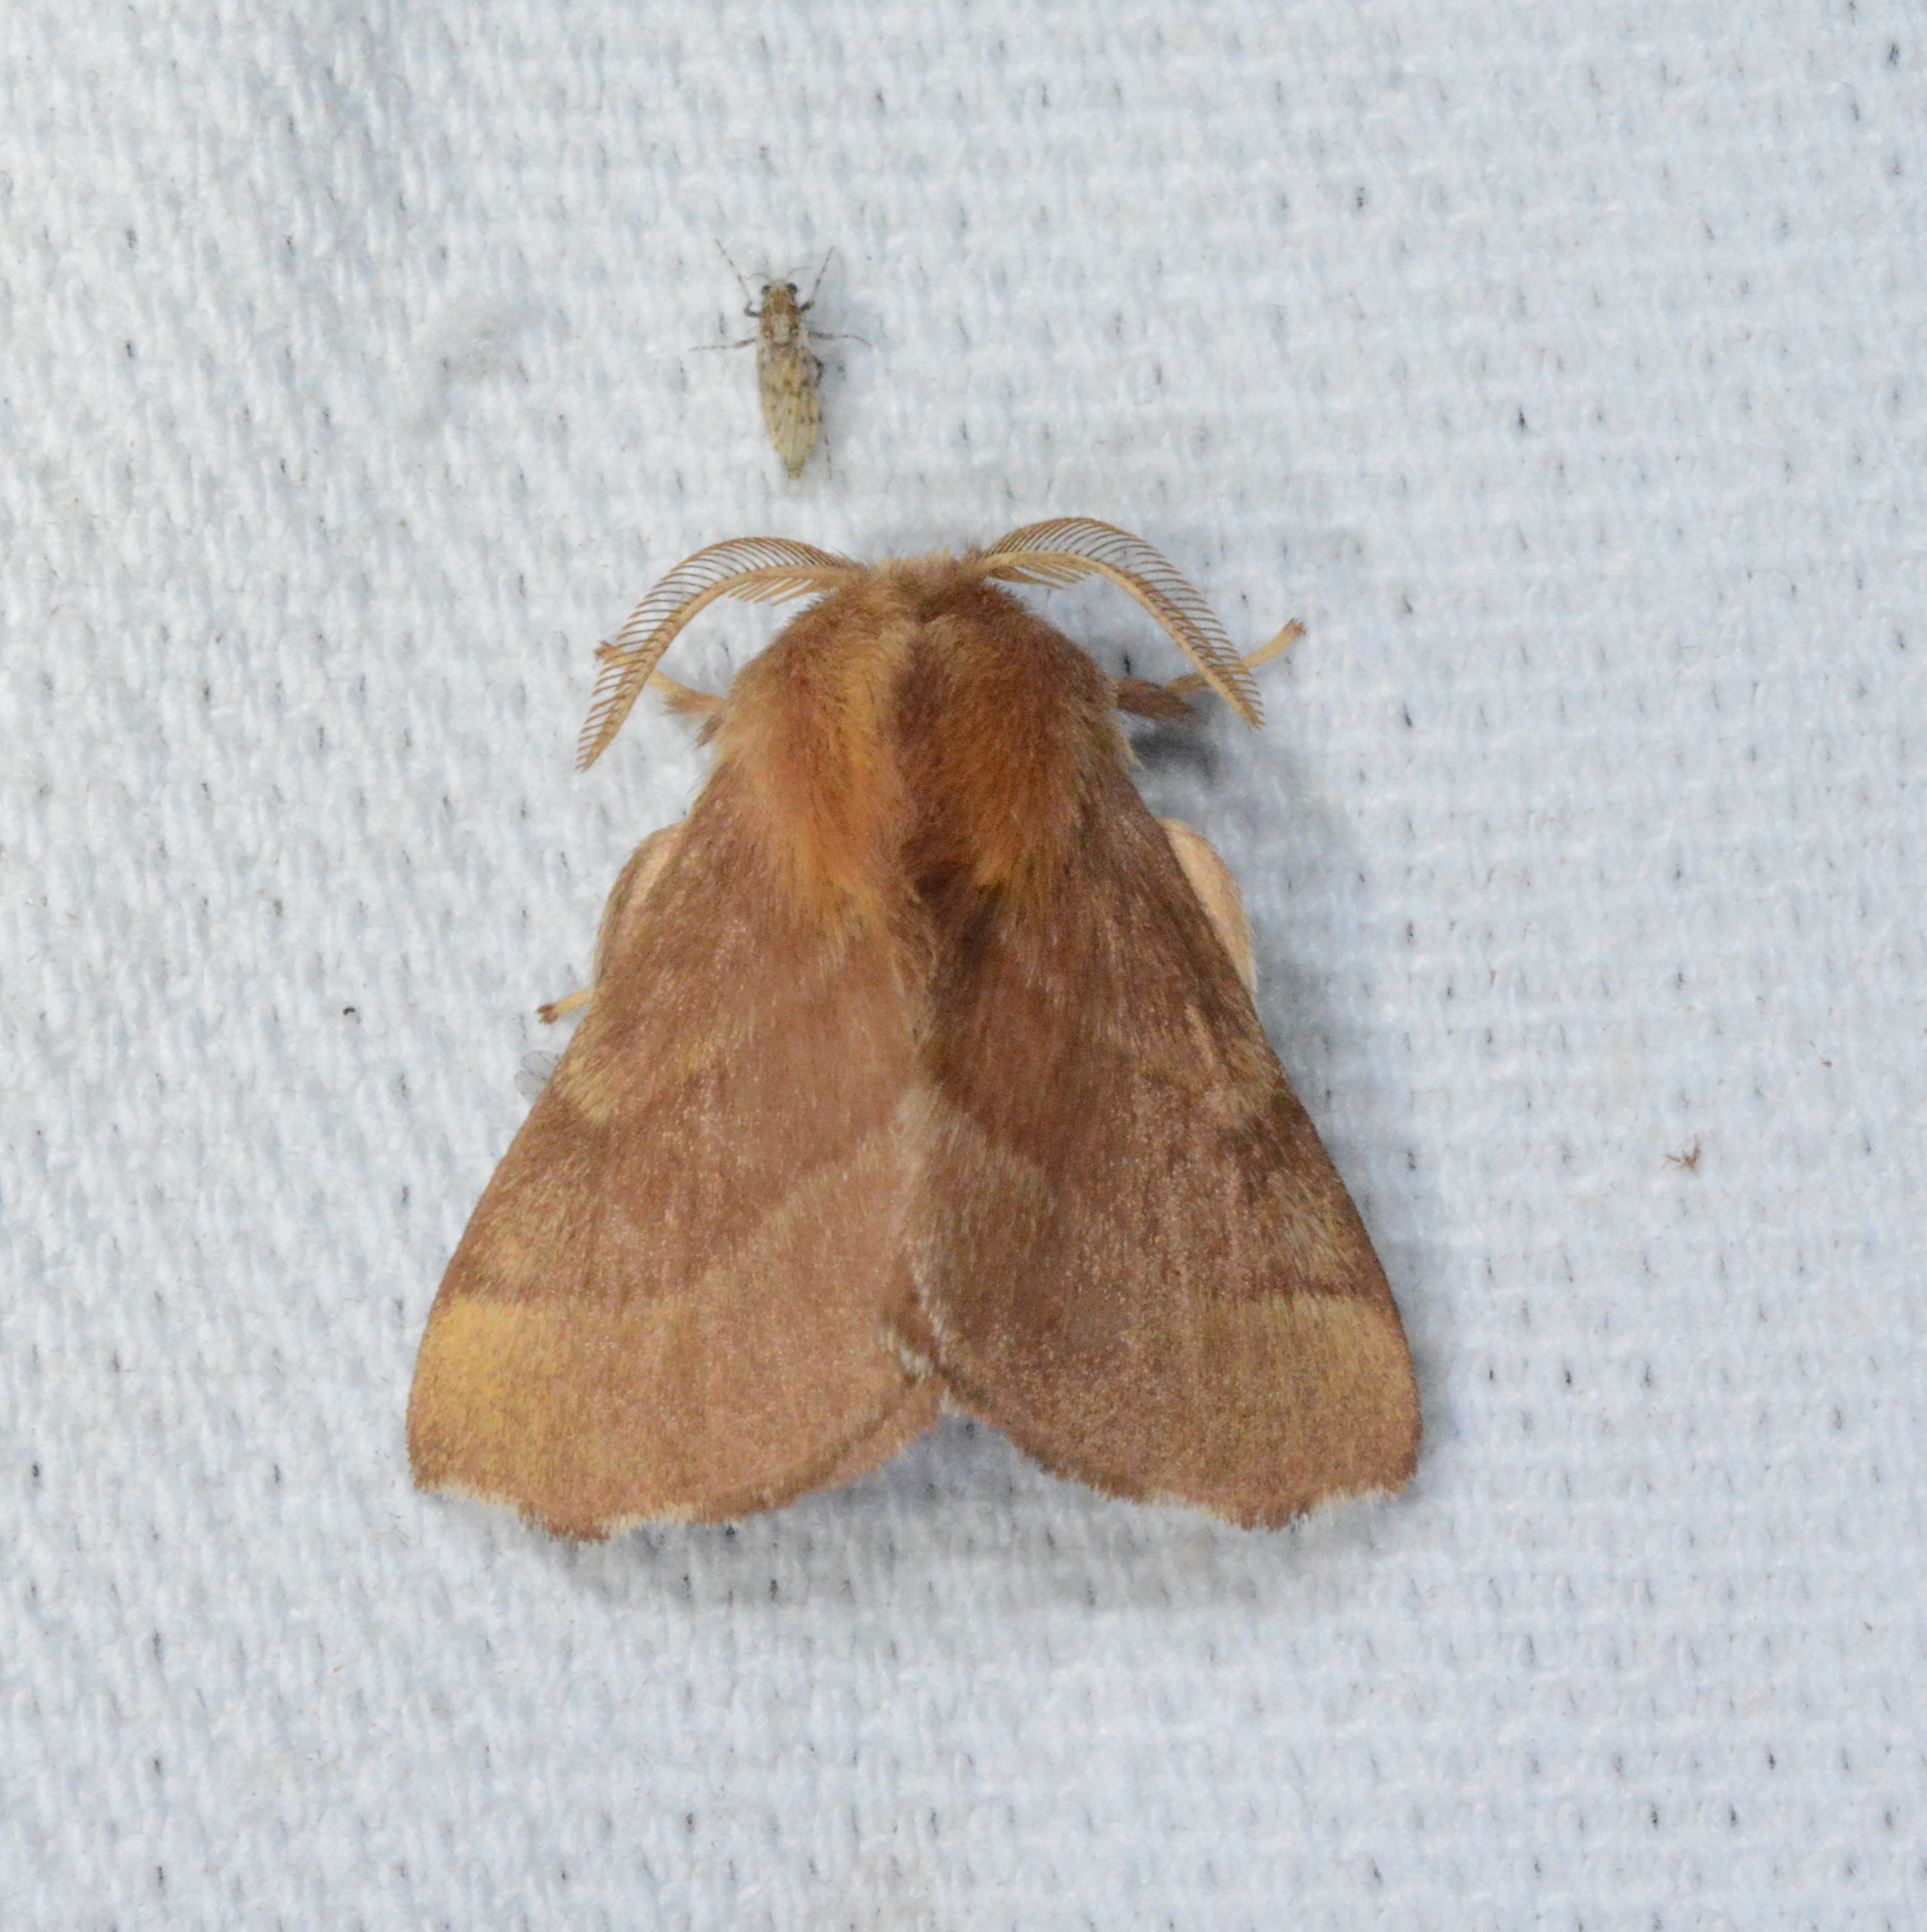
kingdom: Animalia
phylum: Arthropoda
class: Insecta
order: Lepidoptera
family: Lasiocampidae
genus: Malacosoma
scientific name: Malacosoma disstria
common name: Forest tent caterpillar
